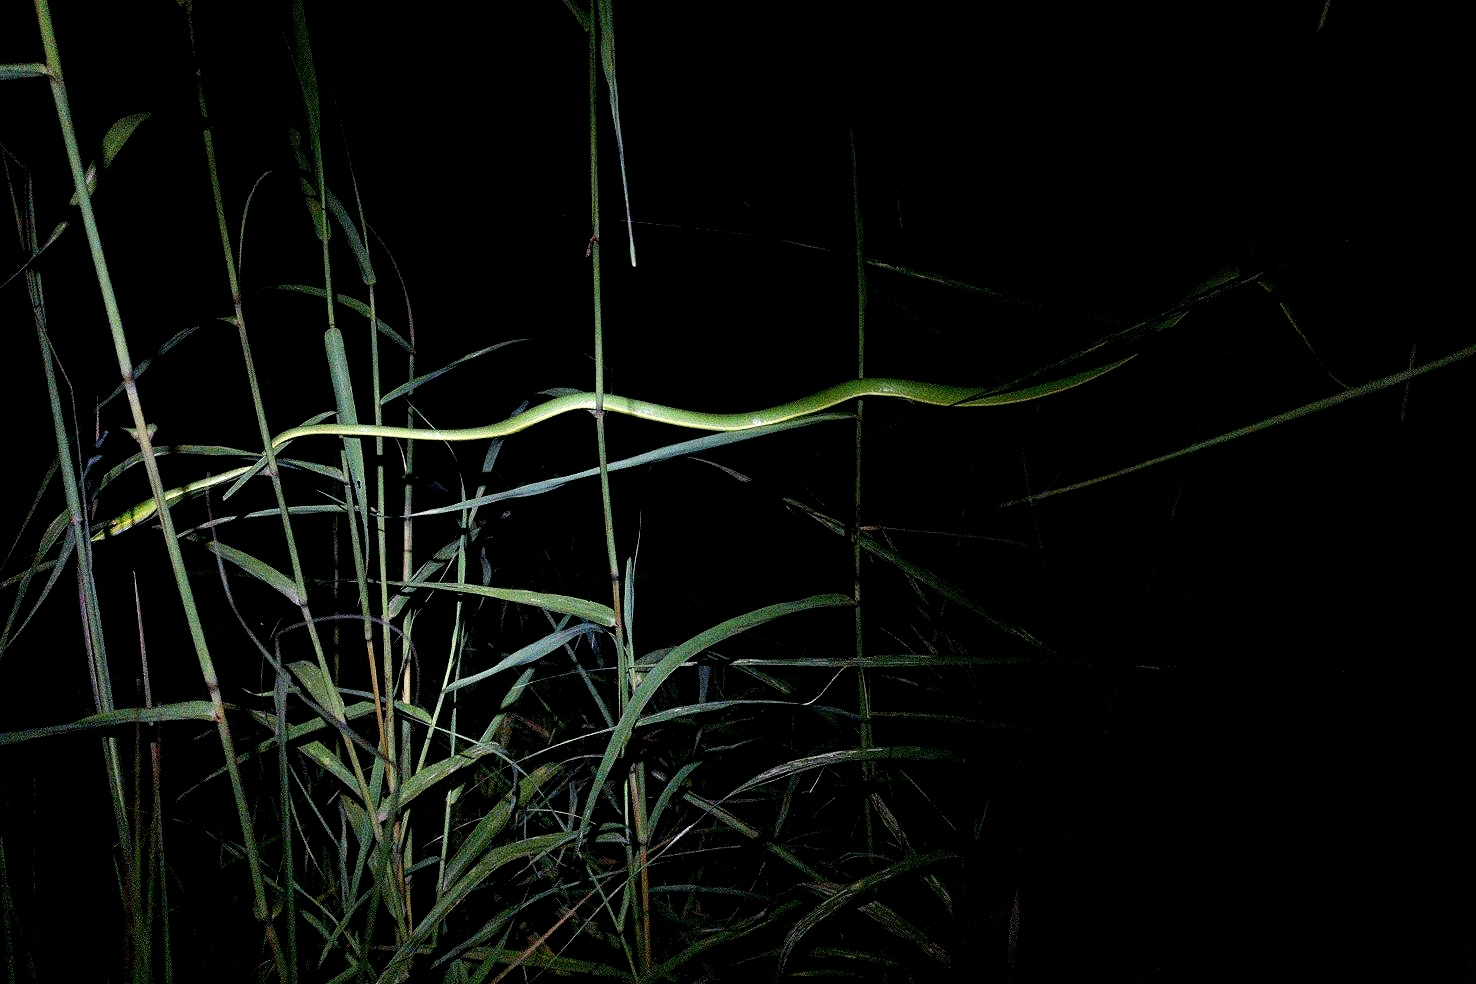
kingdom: Animalia
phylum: Chordata
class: Squamata
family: Colubridae
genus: Ahaetulla
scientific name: Ahaetulla oxyrhyncha
